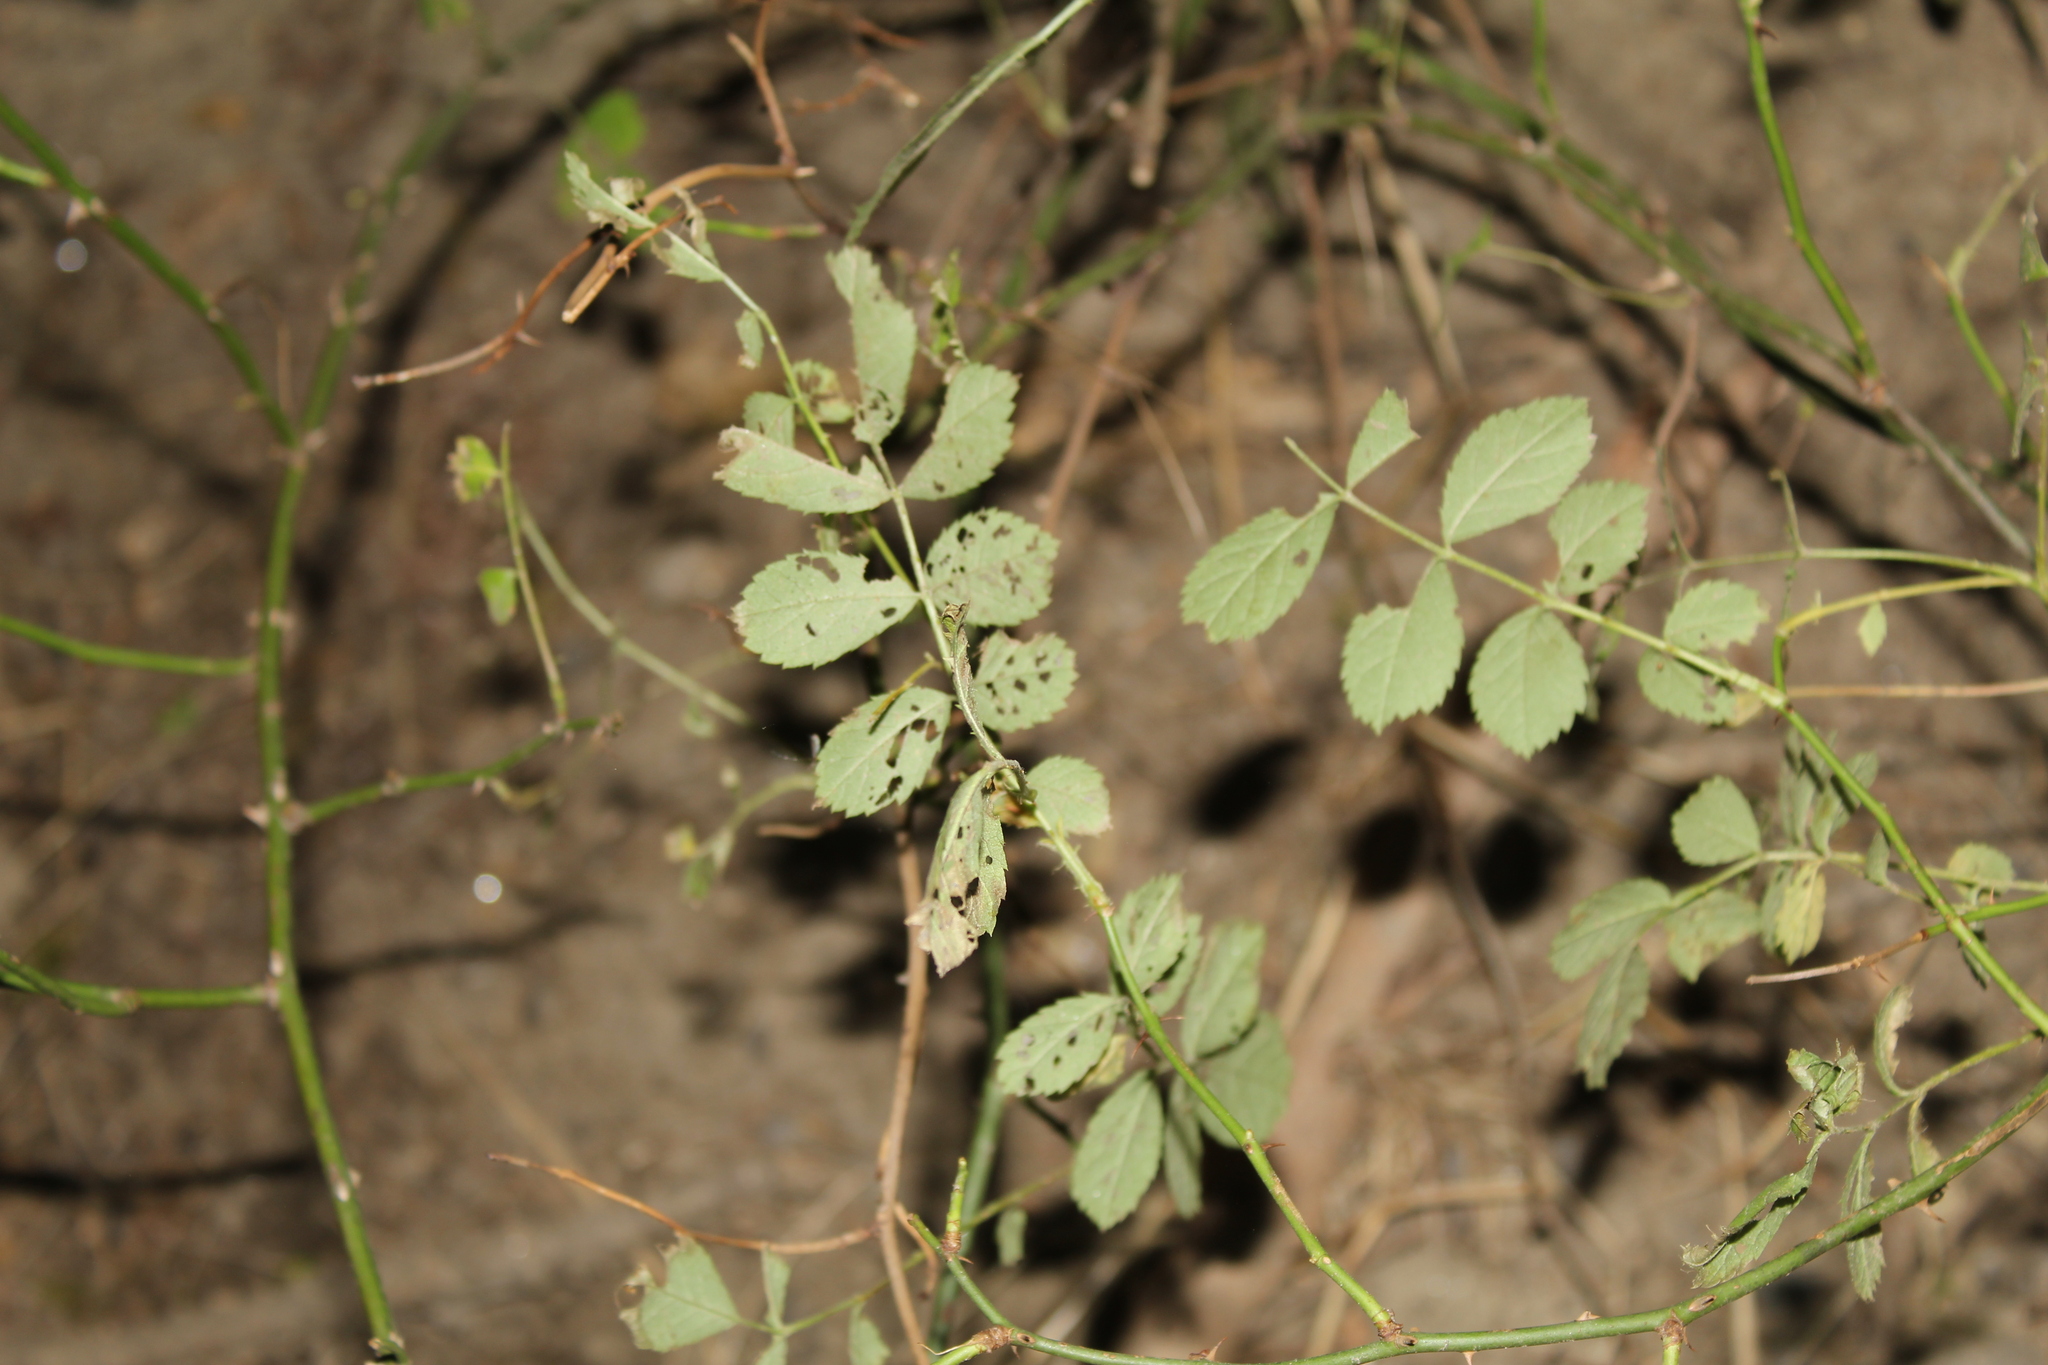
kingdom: Plantae
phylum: Tracheophyta
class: Magnoliopsida
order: Rosales
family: Rosaceae
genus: Rosa
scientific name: Rosa multiflora
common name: Multiflora rose
